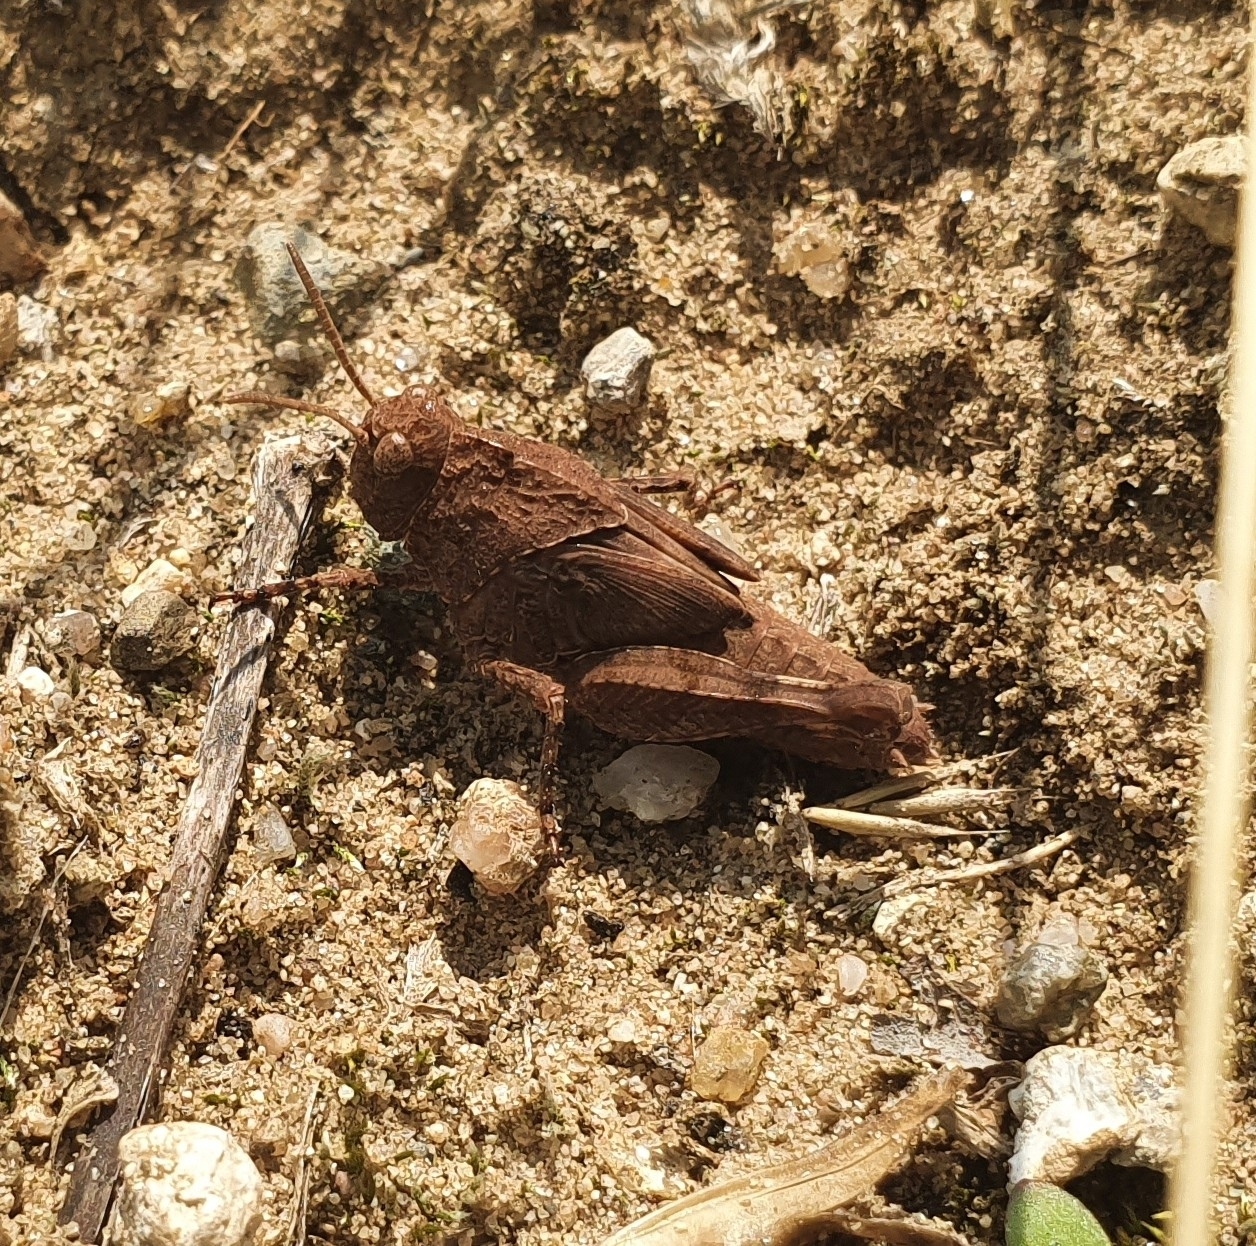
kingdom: Animalia
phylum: Arthropoda
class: Insecta
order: Orthoptera
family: Acrididae
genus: Oedipoda
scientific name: Oedipoda caerulescens
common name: Blue-winged grasshopper
